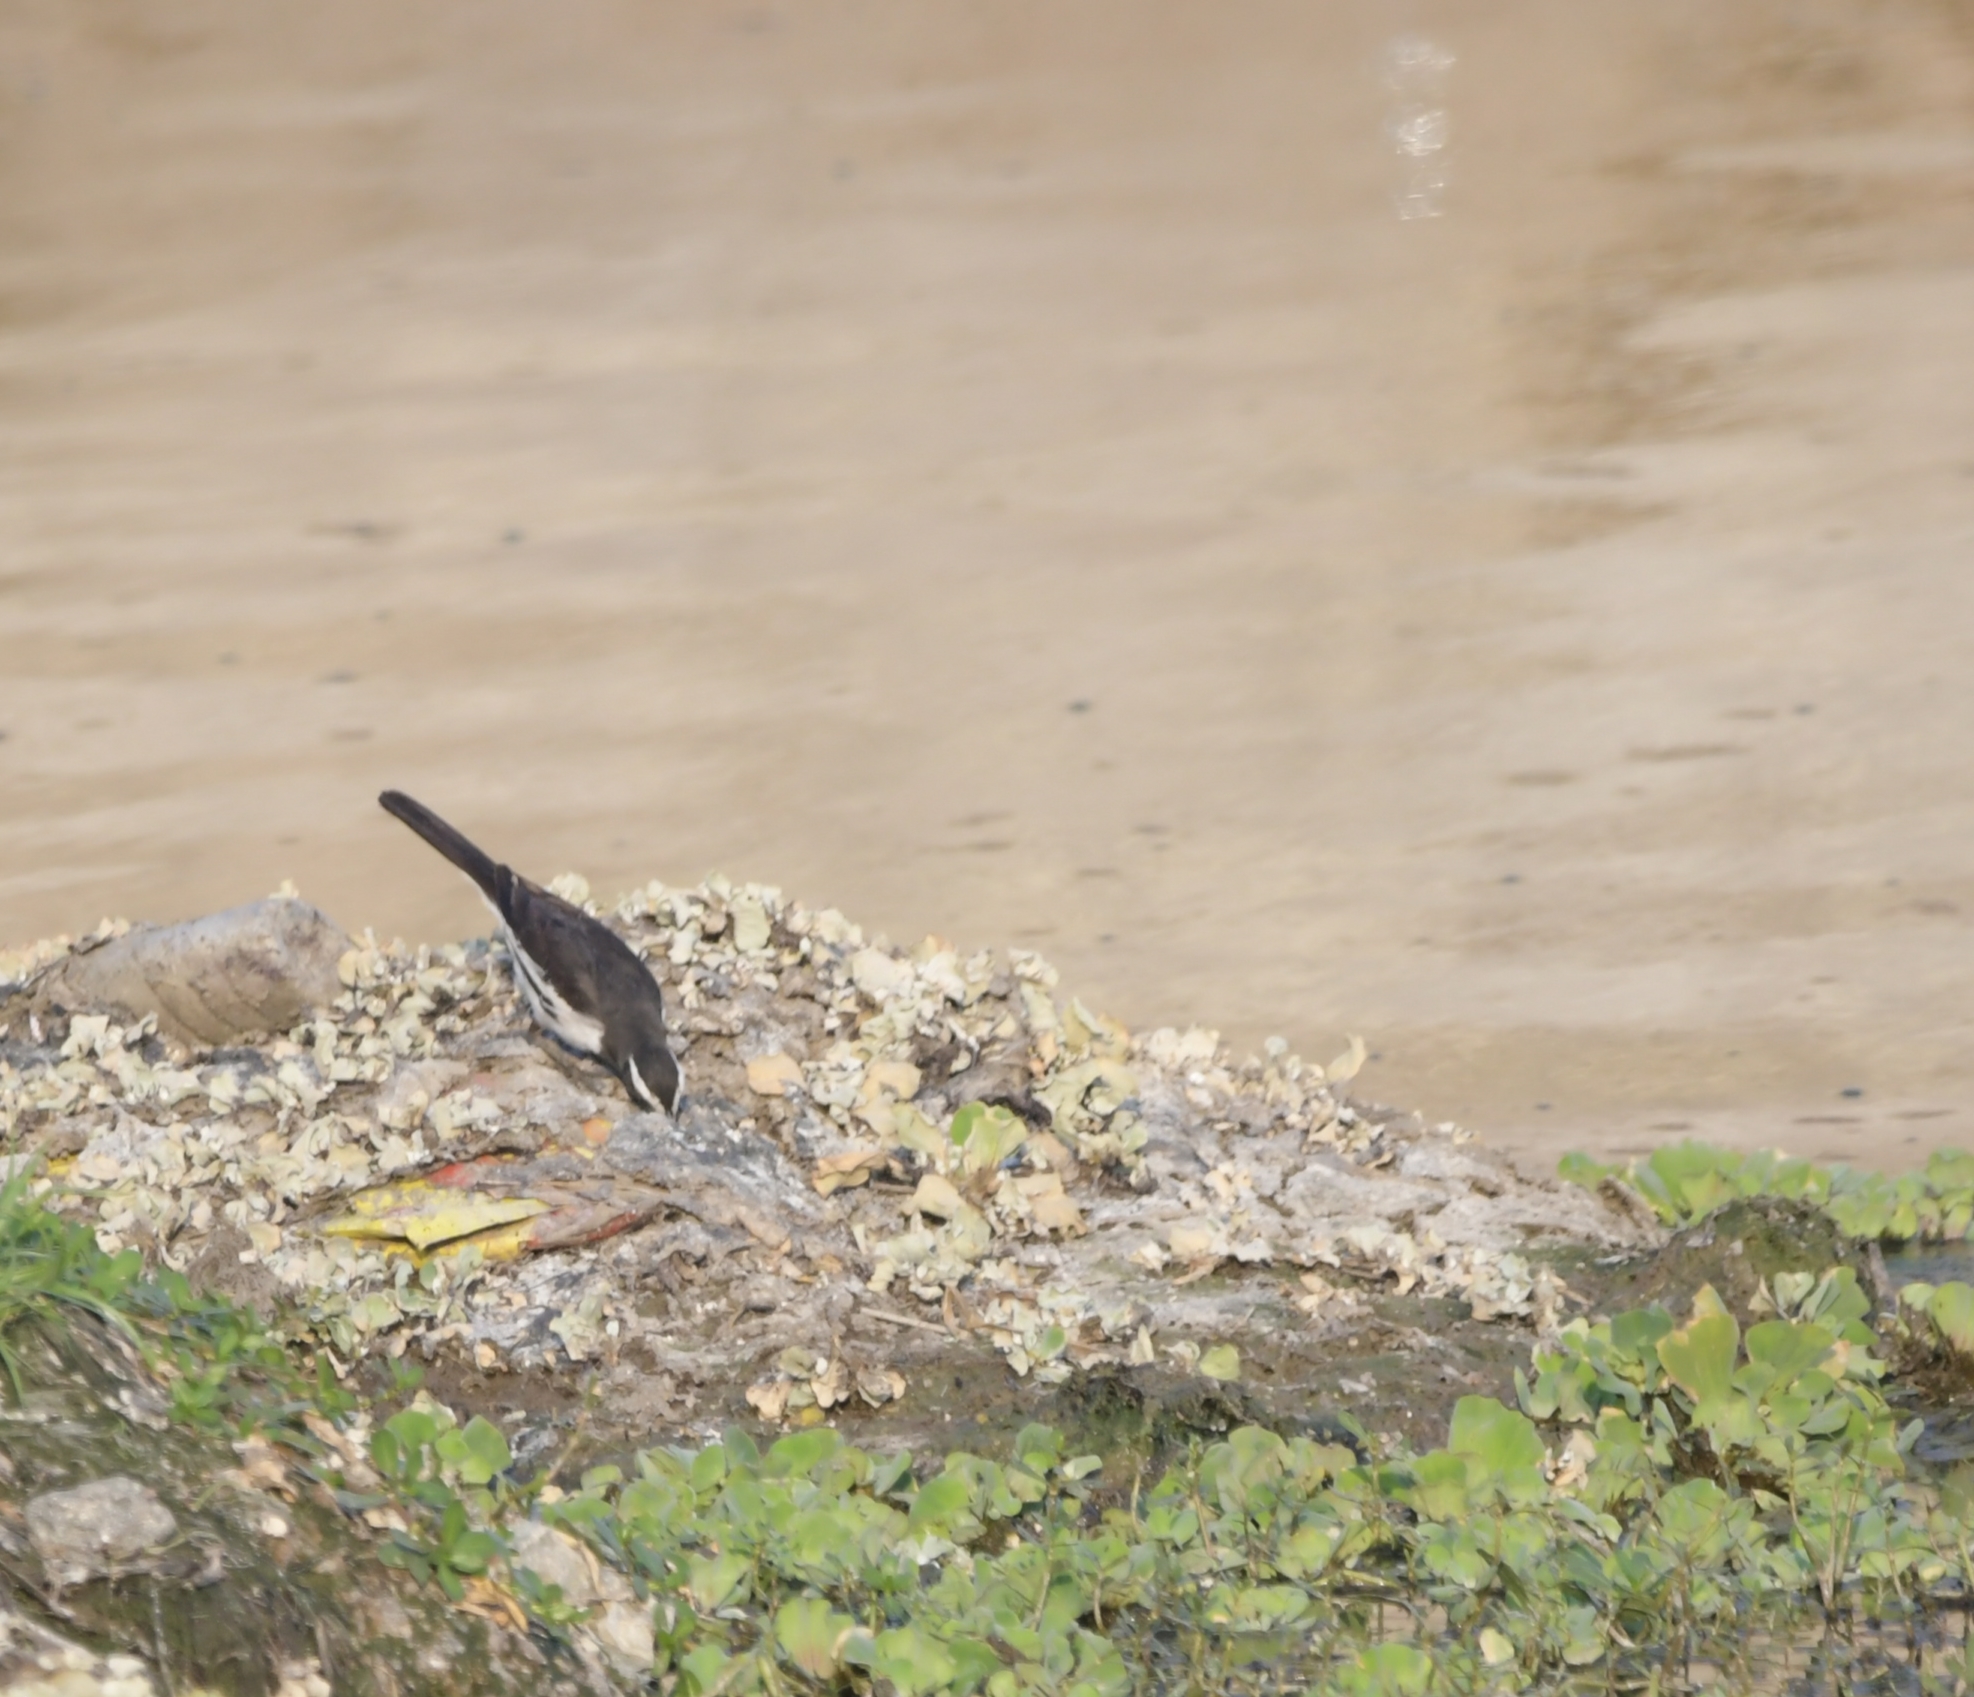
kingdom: Animalia
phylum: Chordata
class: Aves
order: Passeriformes
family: Motacillidae
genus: Motacilla
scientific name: Motacilla maderaspatensis
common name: White-browed wagtail
